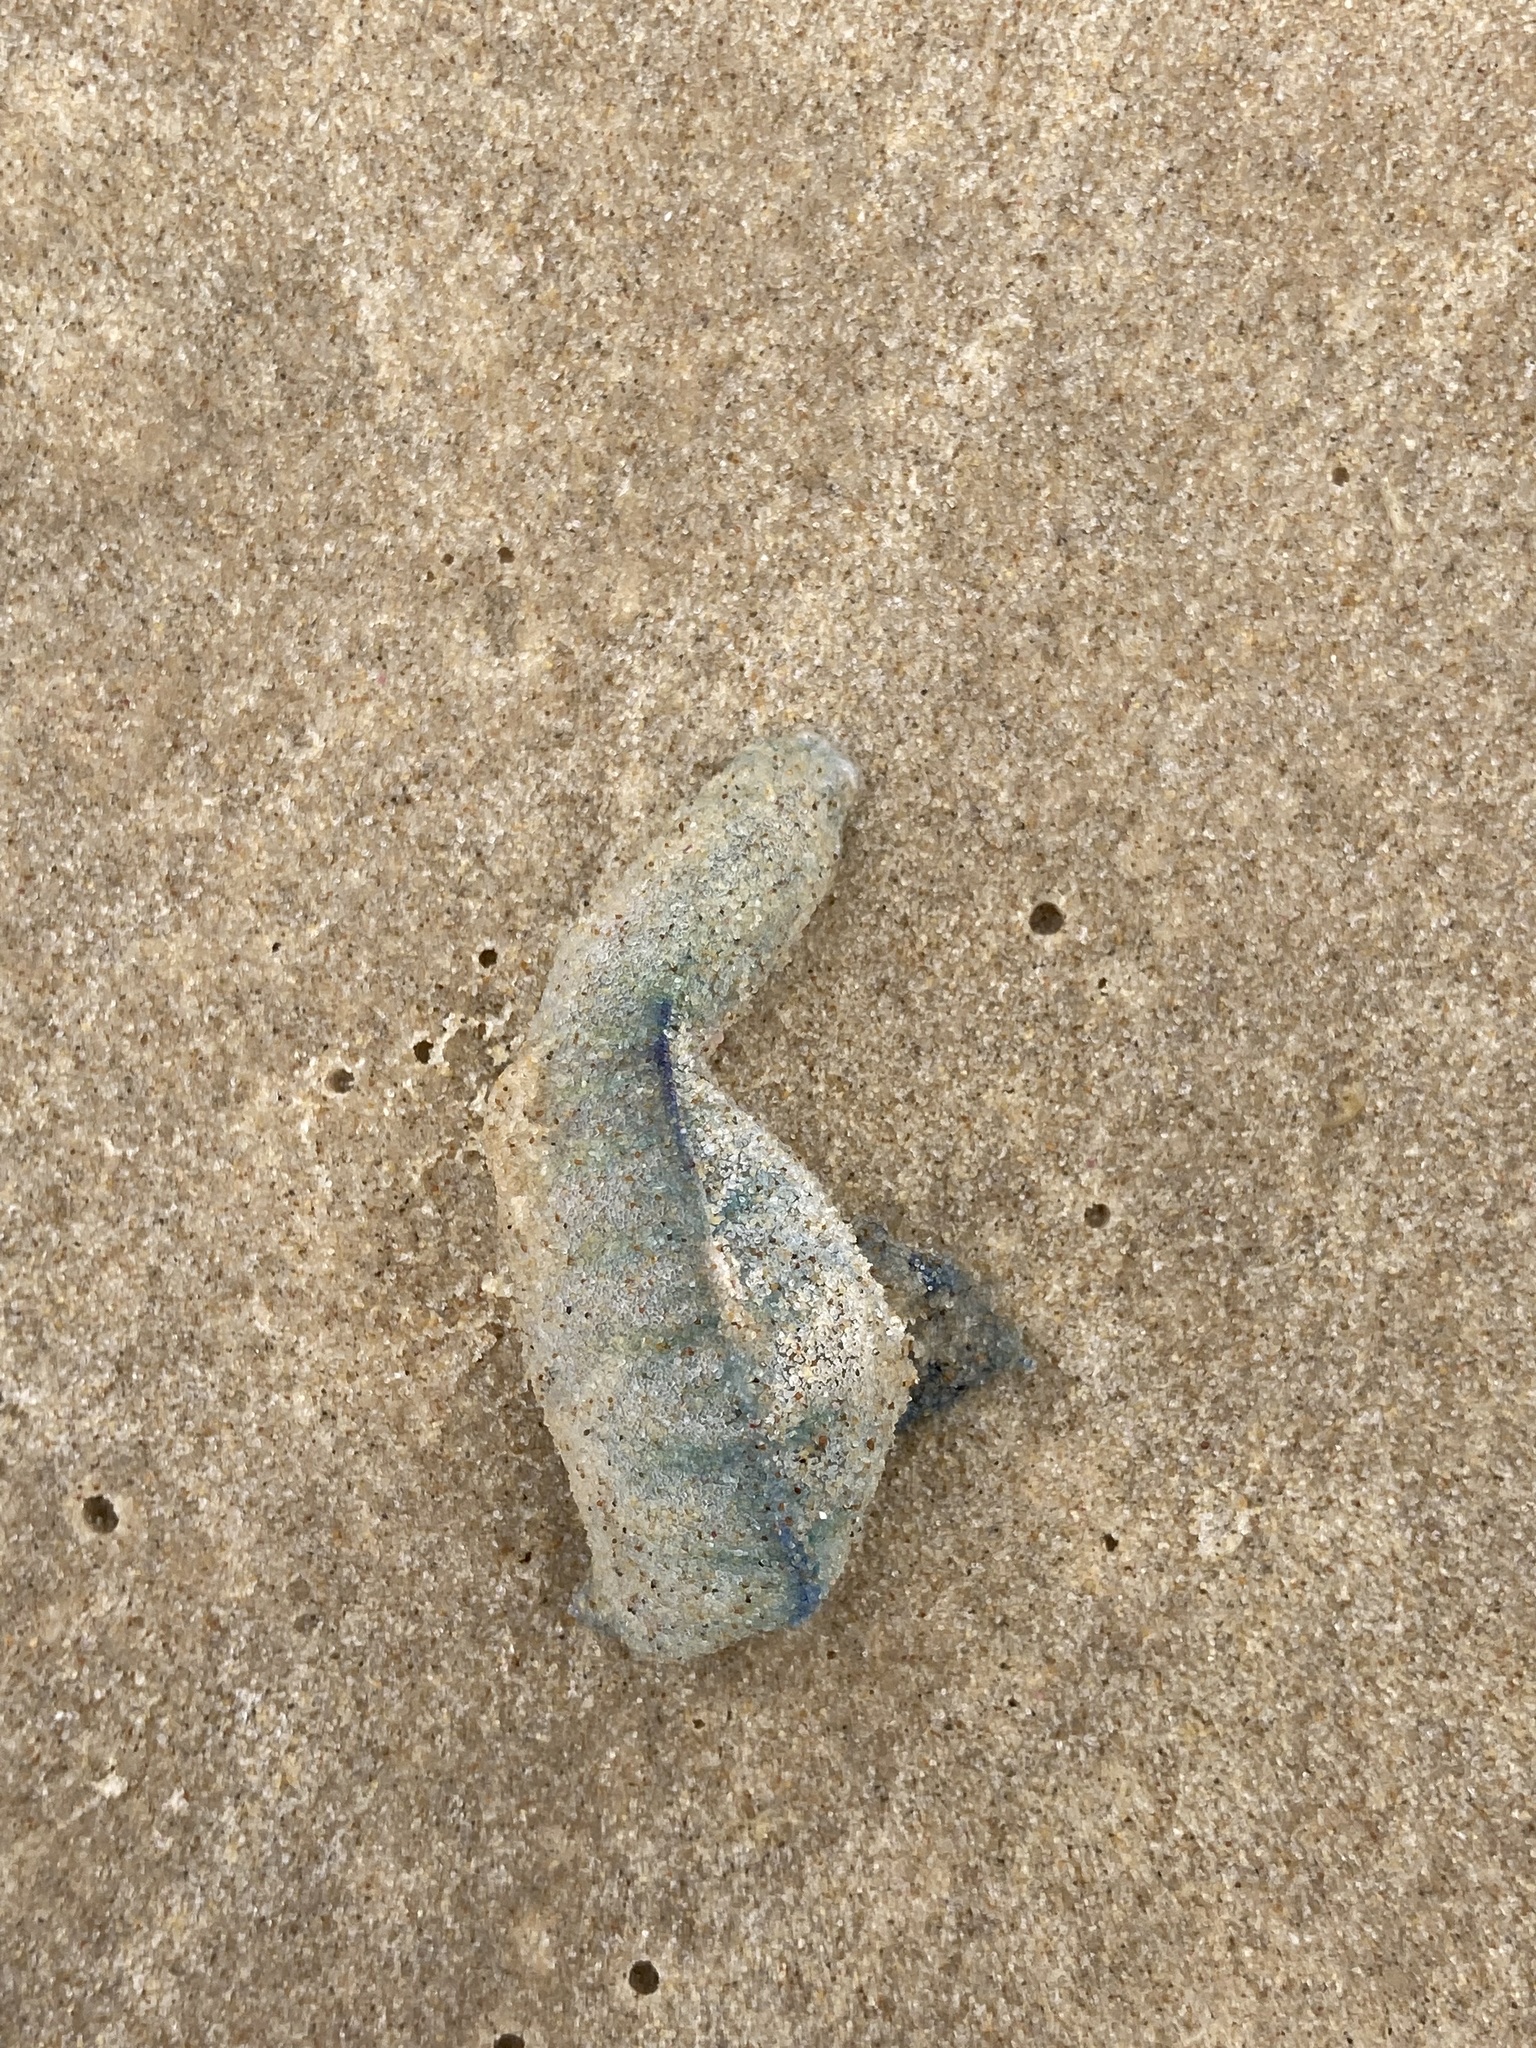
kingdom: Animalia
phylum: Cnidaria
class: Hydrozoa
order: Siphonophorae
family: Physaliidae
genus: Physalia
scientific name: Physalia physalis
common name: Portuguese man-of-war
